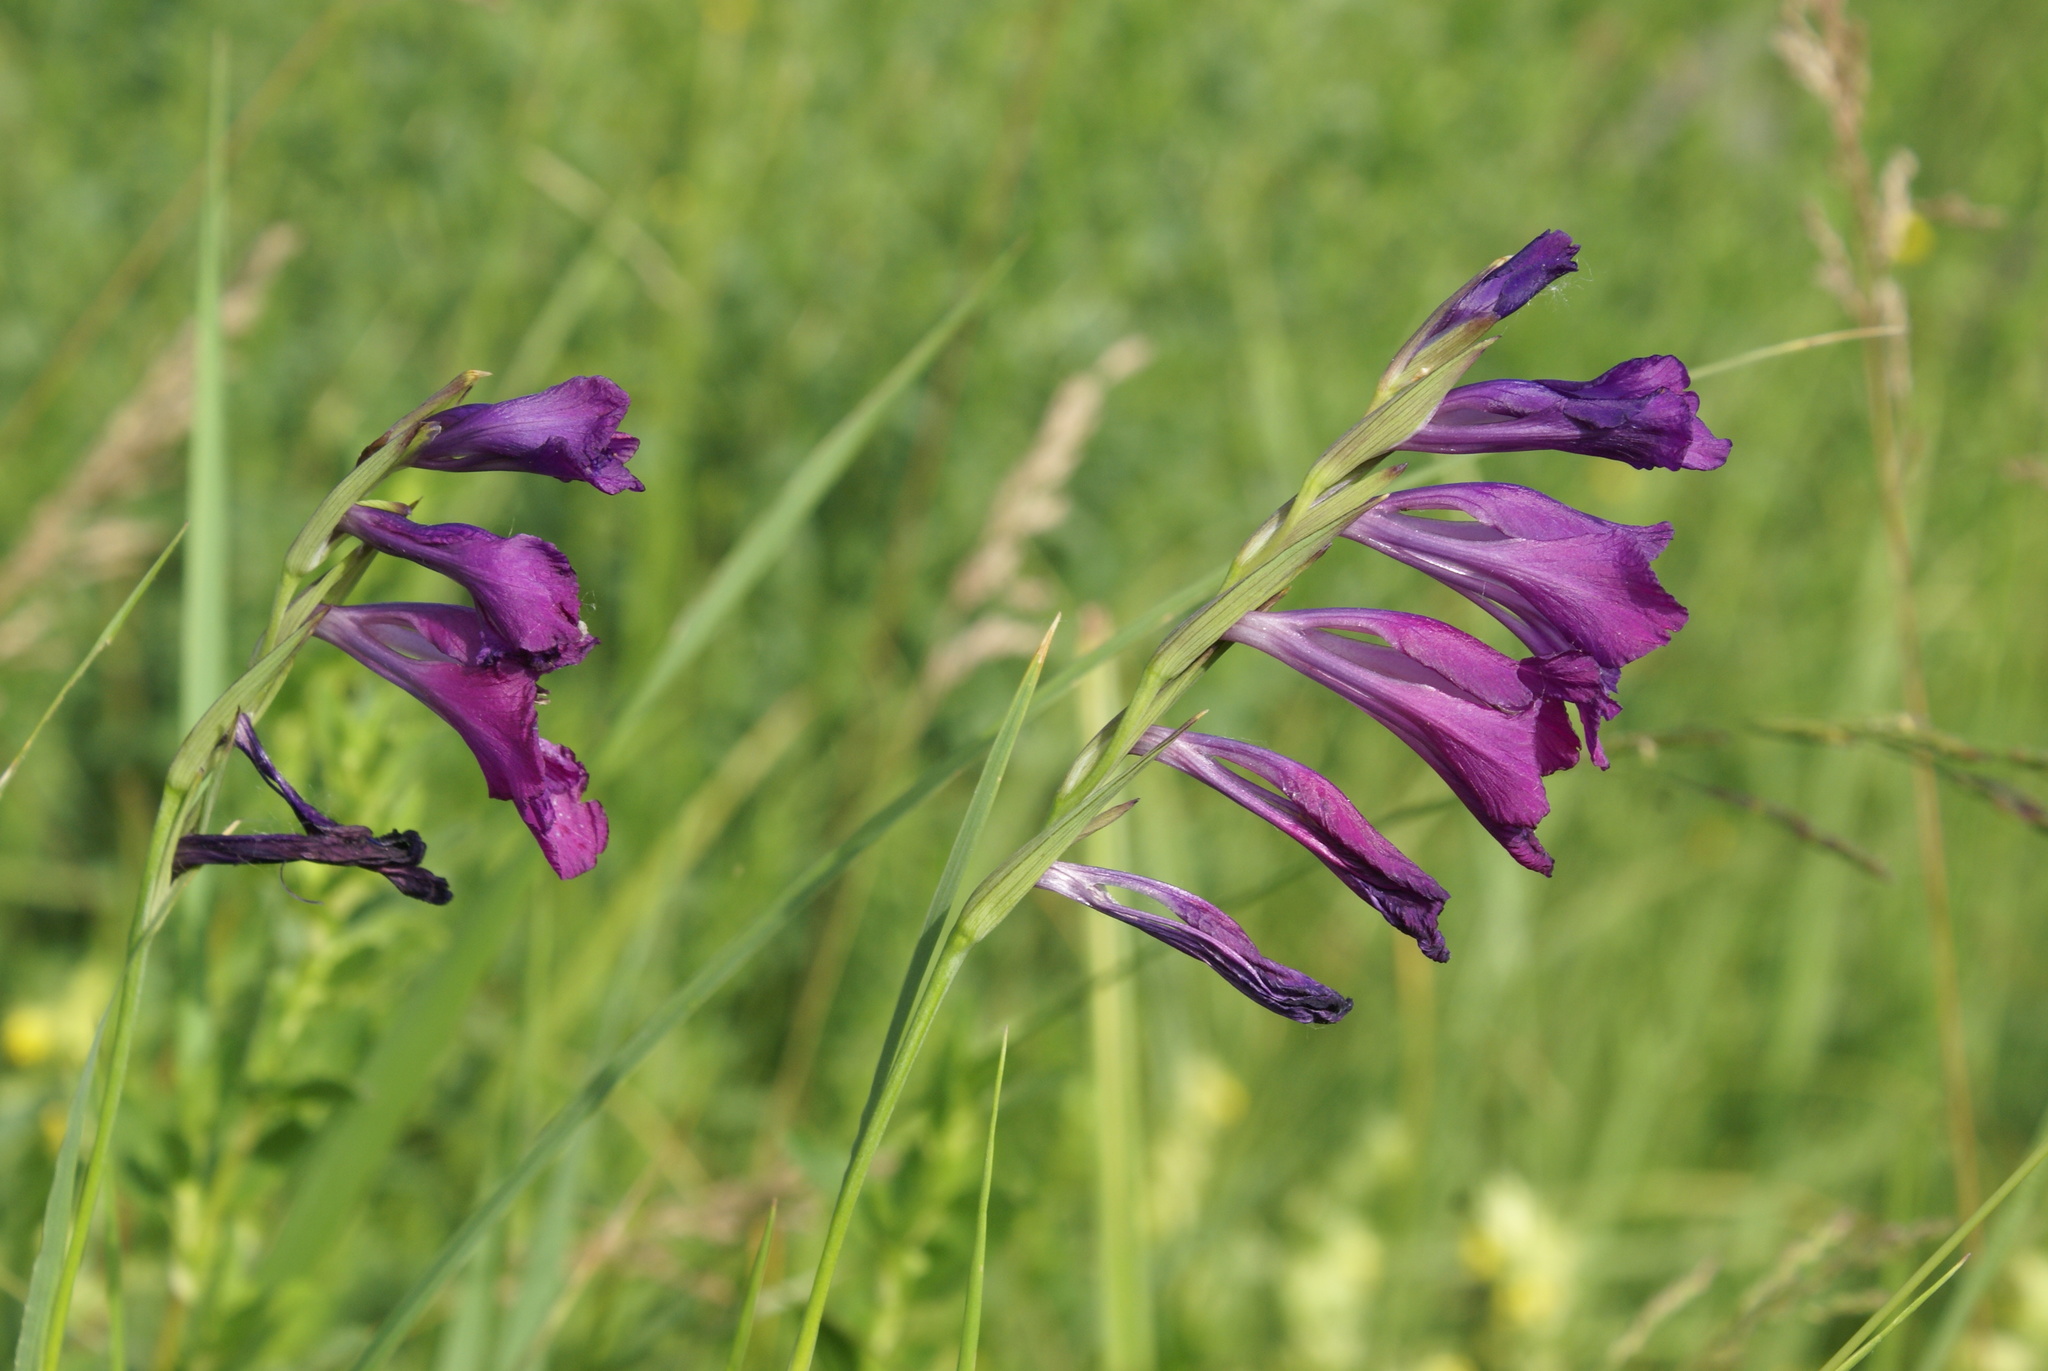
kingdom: Plantae
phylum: Tracheophyta
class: Liliopsida
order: Asparagales
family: Iridaceae
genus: Gladiolus
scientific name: Gladiolus tenuis
